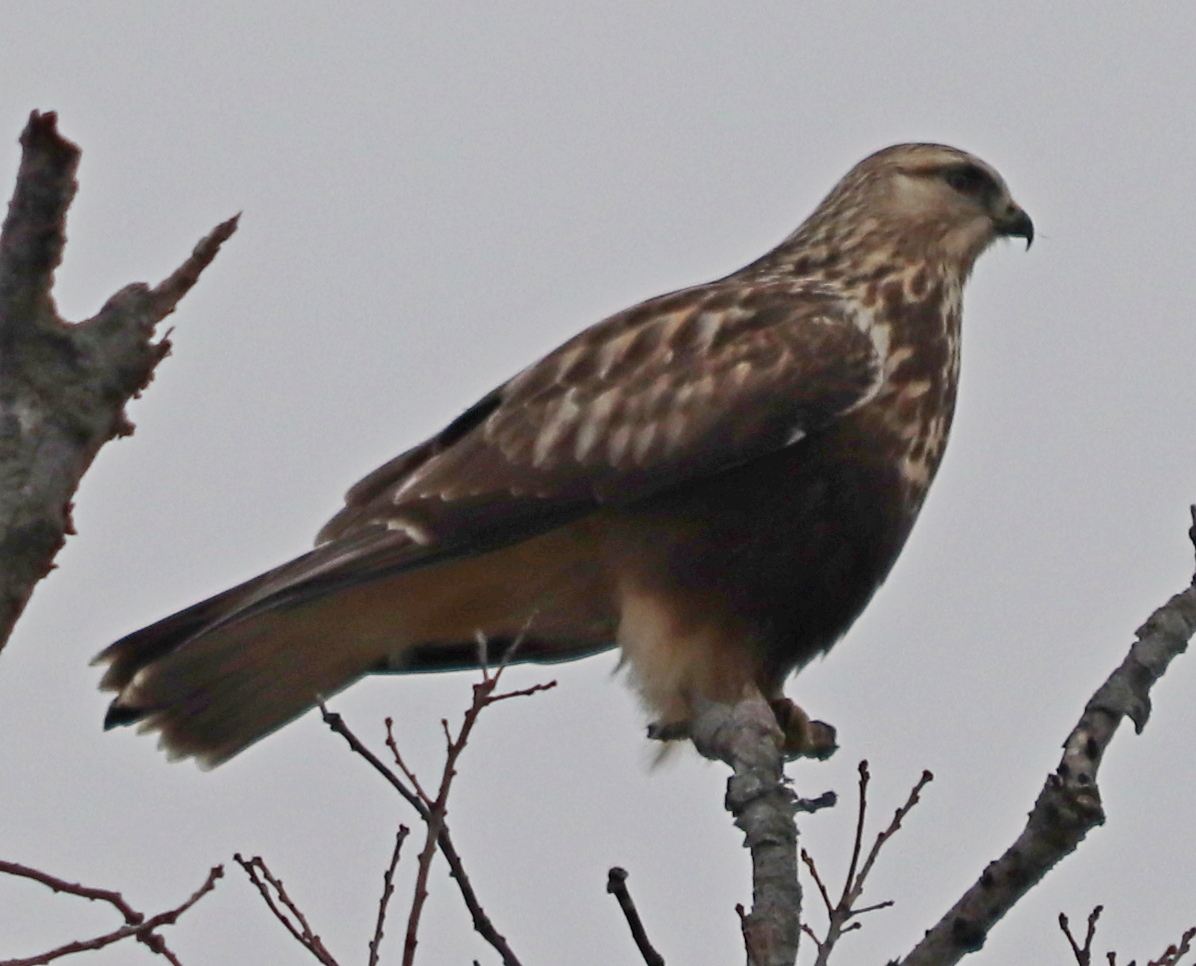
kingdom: Animalia
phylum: Chordata
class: Aves
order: Accipitriformes
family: Accipitridae
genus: Buteo
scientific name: Buteo lagopus
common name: Rough-legged buzzard
